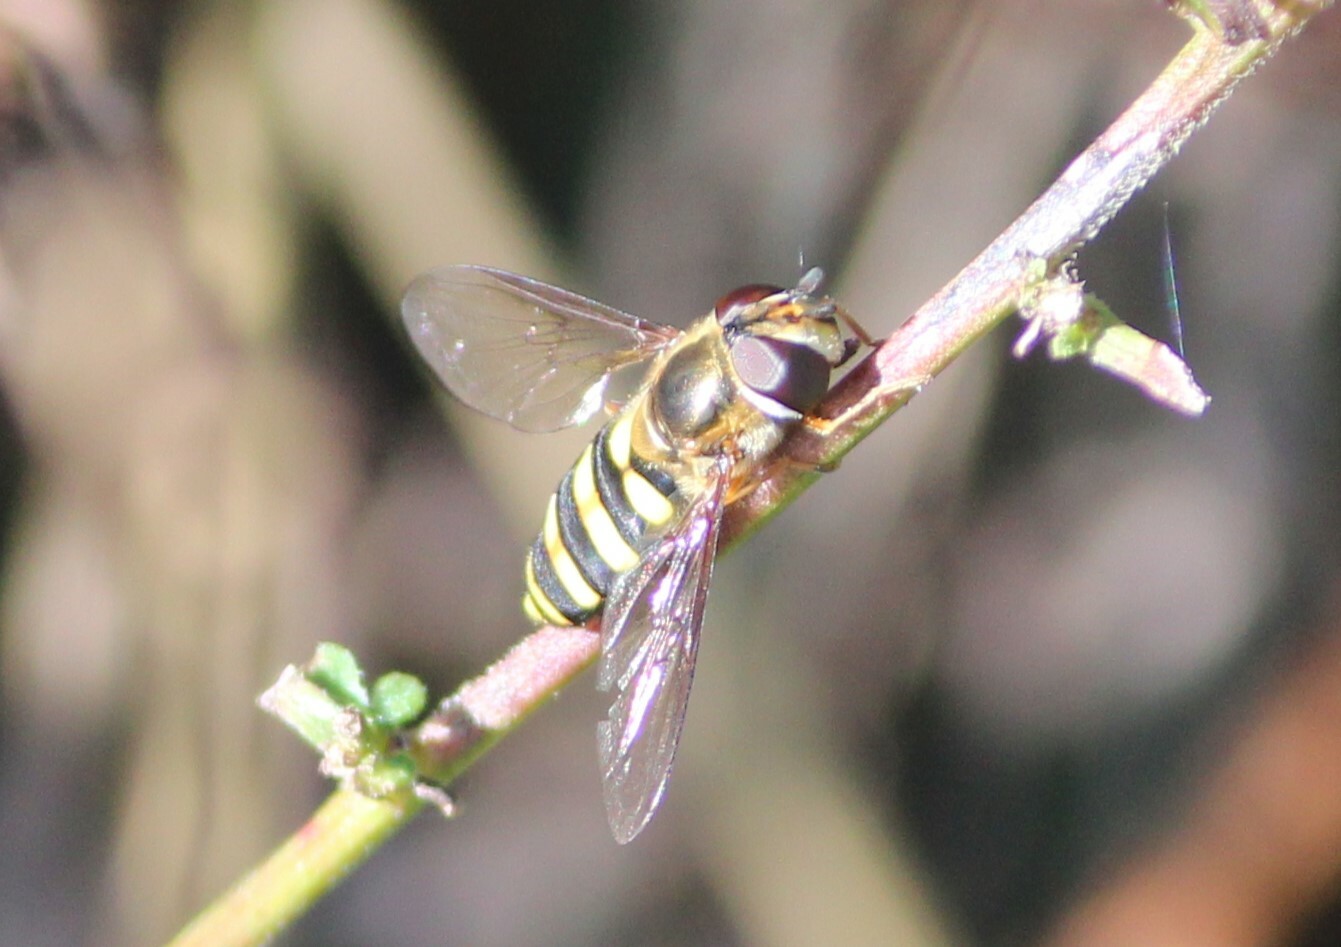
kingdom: Animalia
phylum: Arthropoda
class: Insecta
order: Diptera
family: Syrphidae
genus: Eupeodes
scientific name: Eupeodes
